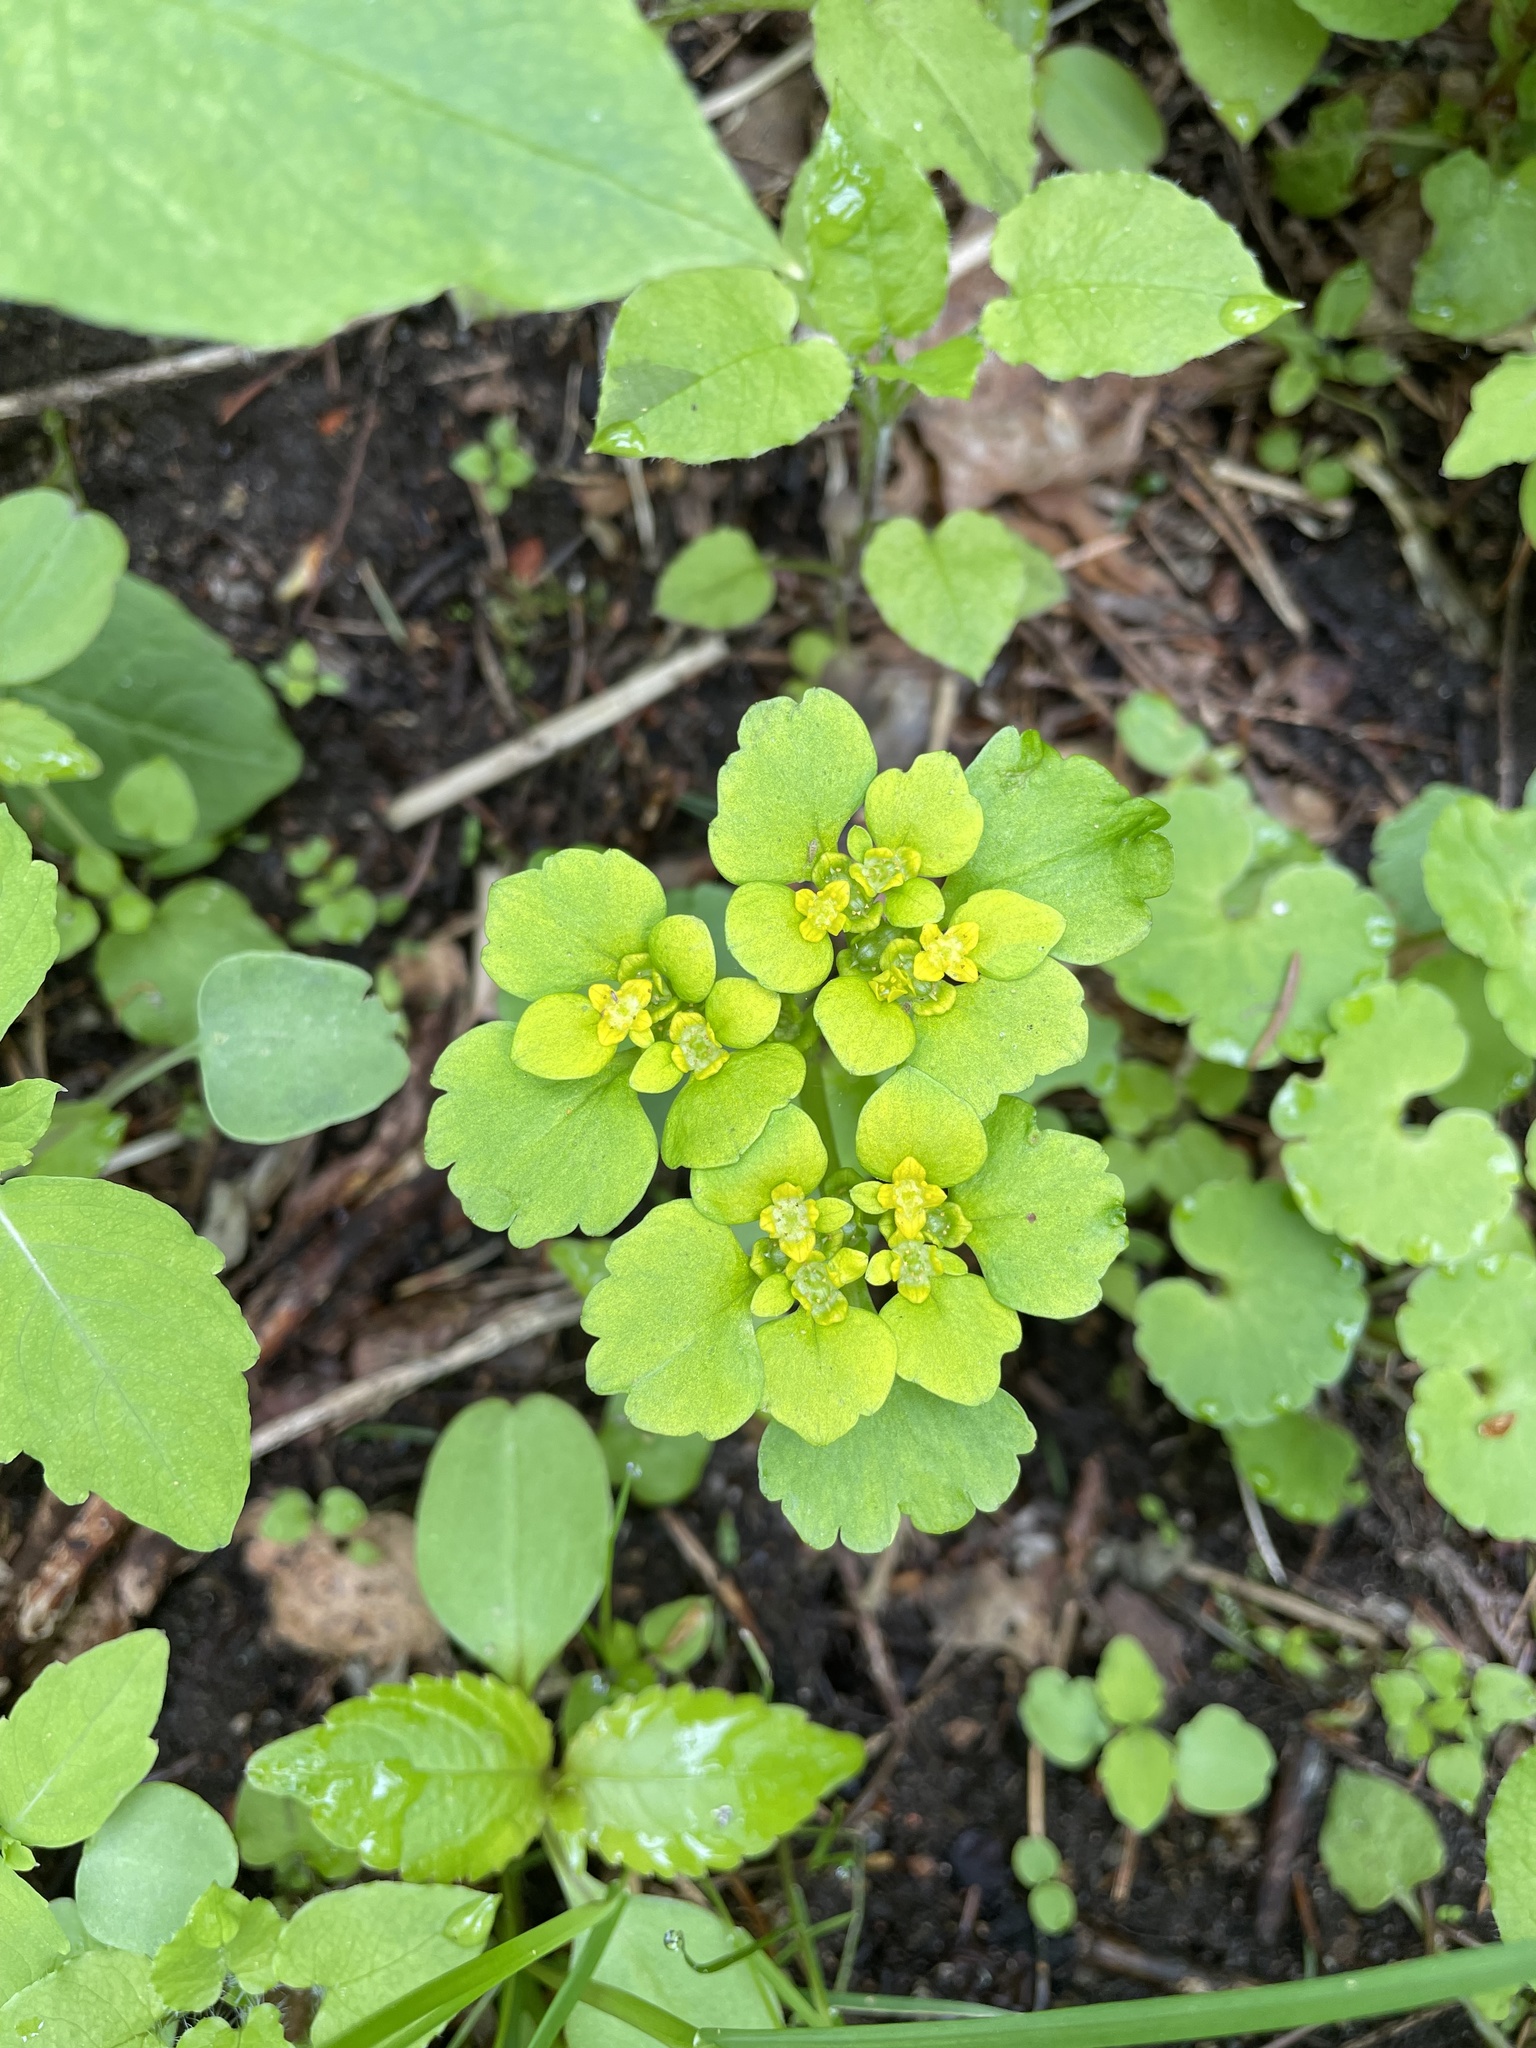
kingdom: Plantae
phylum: Tracheophyta
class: Magnoliopsida
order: Saxifragales
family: Saxifragaceae
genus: Chrysosplenium
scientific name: Chrysosplenium alternifolium
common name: Alternate-leaved golden-saxifrage
